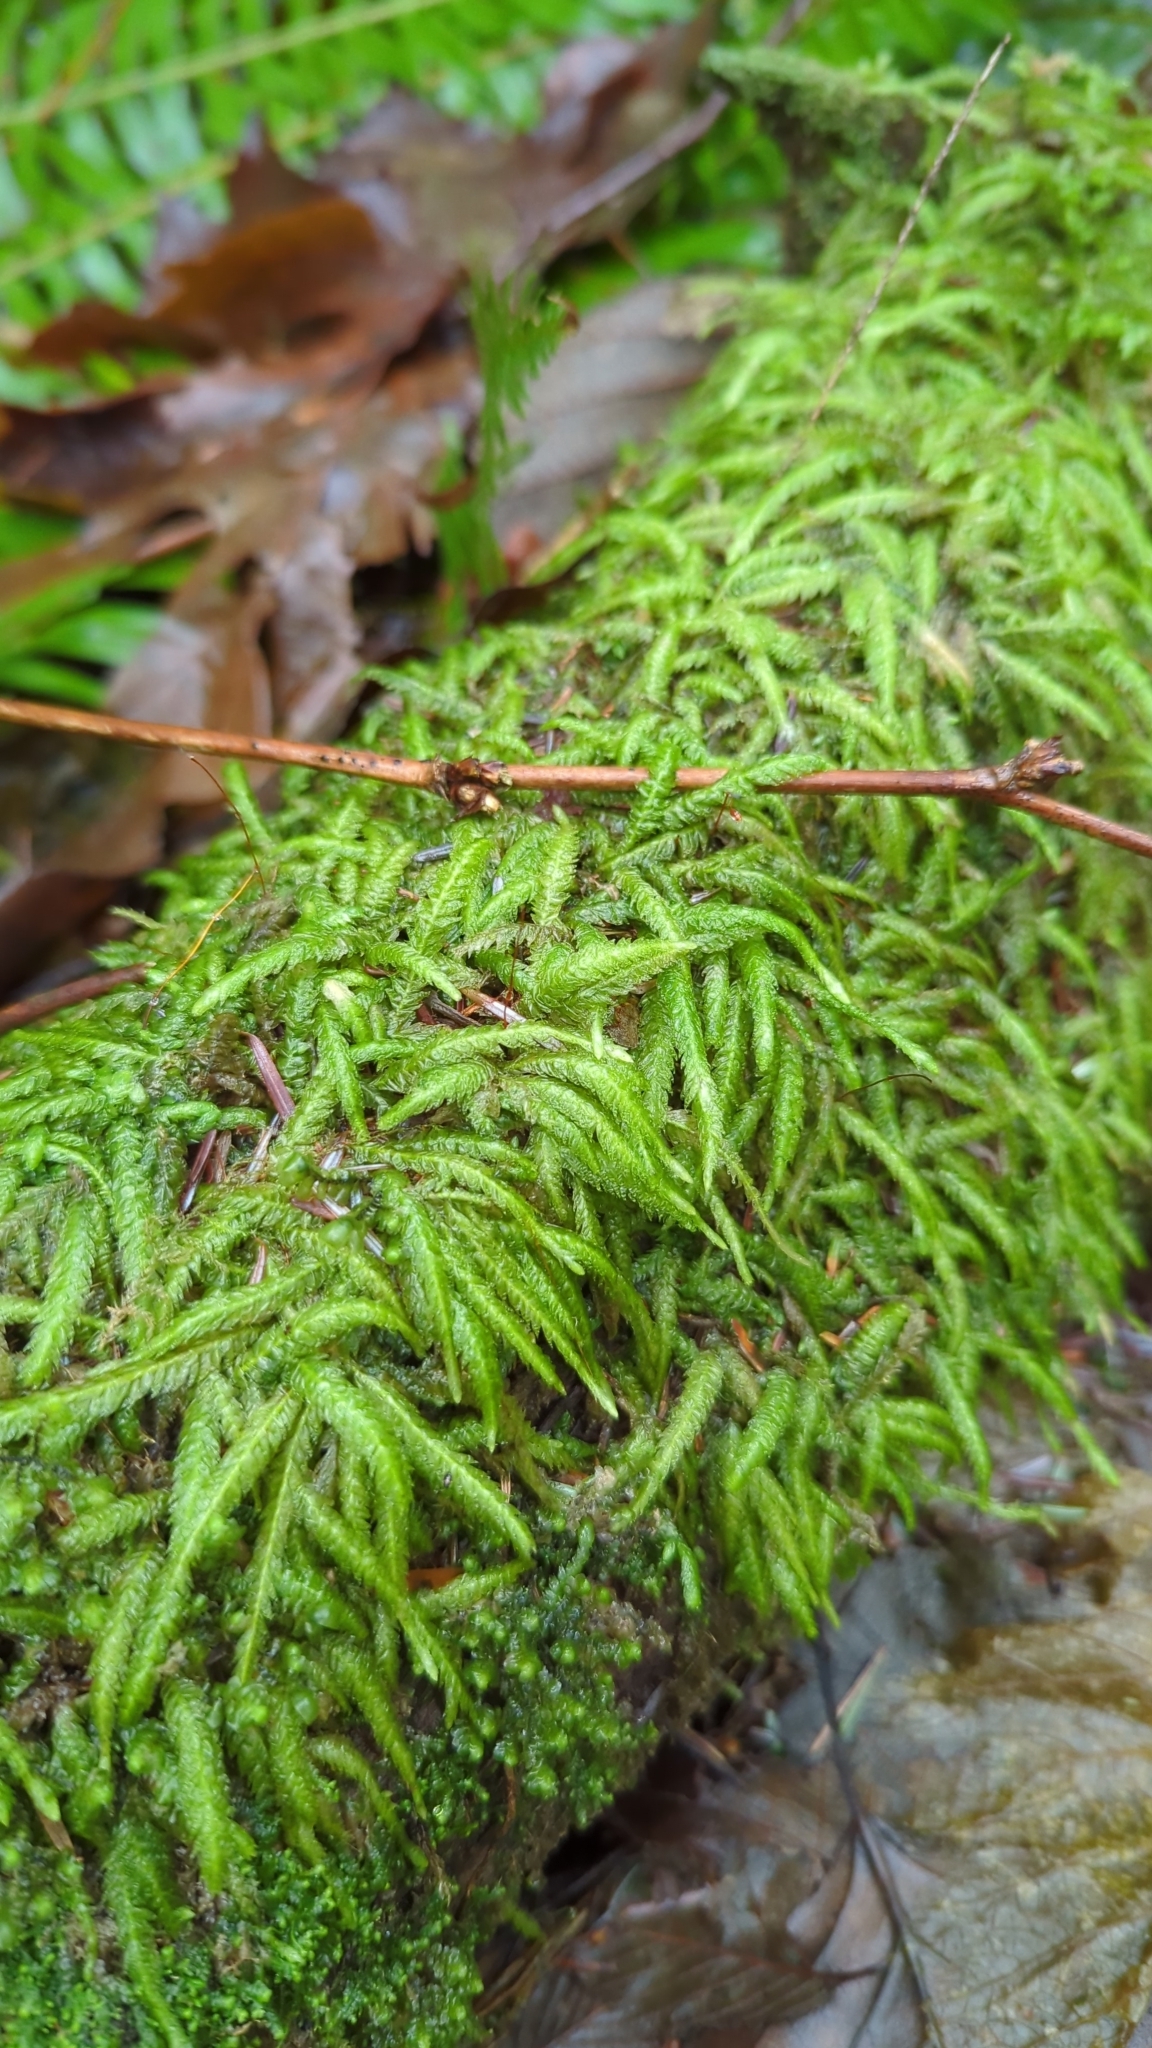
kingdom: Plantae
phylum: Bryophyta
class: Bryopsida
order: Hypnales
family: Plagiotheciaceae
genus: Plagiothecium
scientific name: Plagiothecium undulatum
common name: Waved silk-moss
